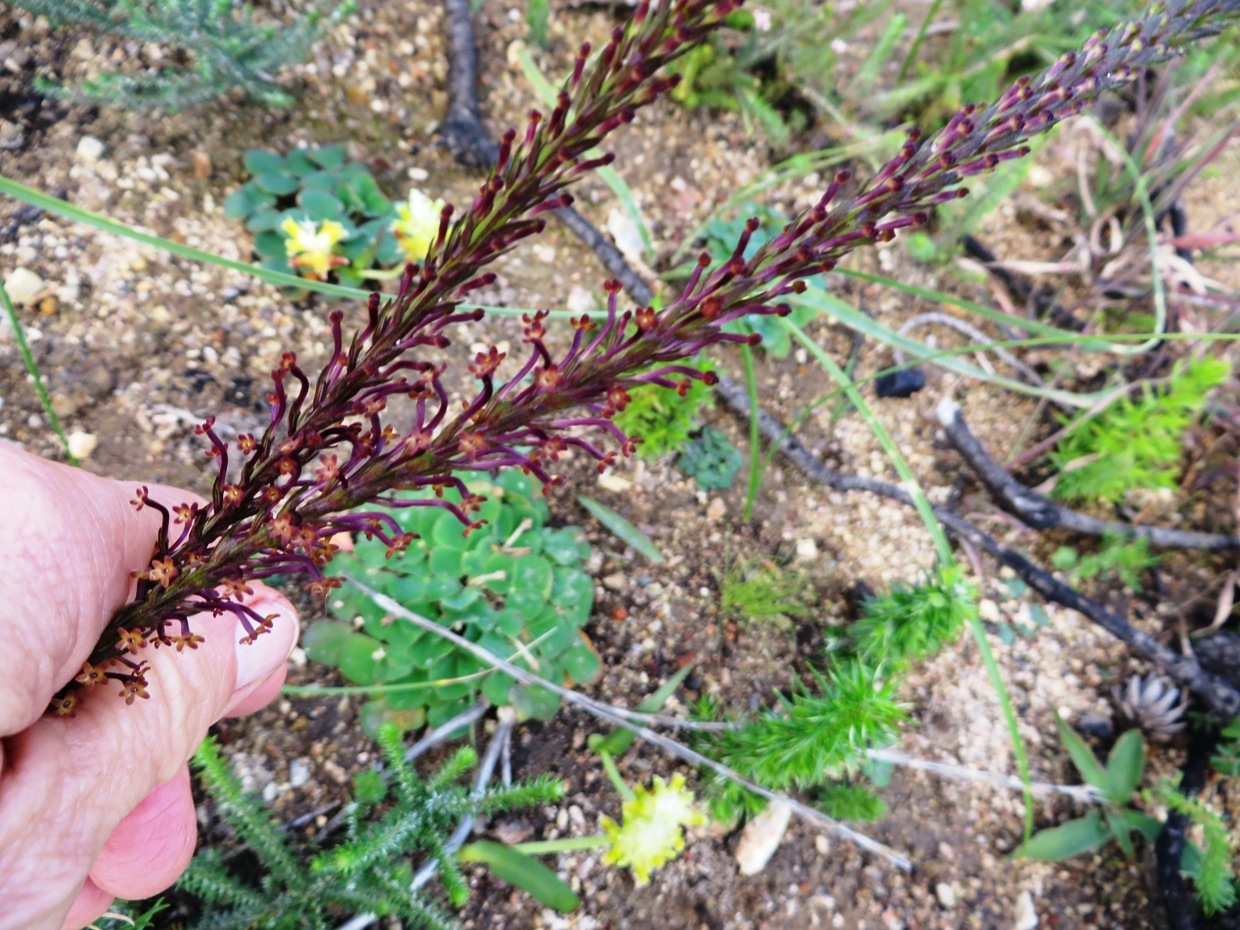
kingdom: Plantae
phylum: Tracheophyta
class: Magnoliopsida
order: Lamiales
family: Scrophulariaceae
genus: Microdon
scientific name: Microdon dubius
